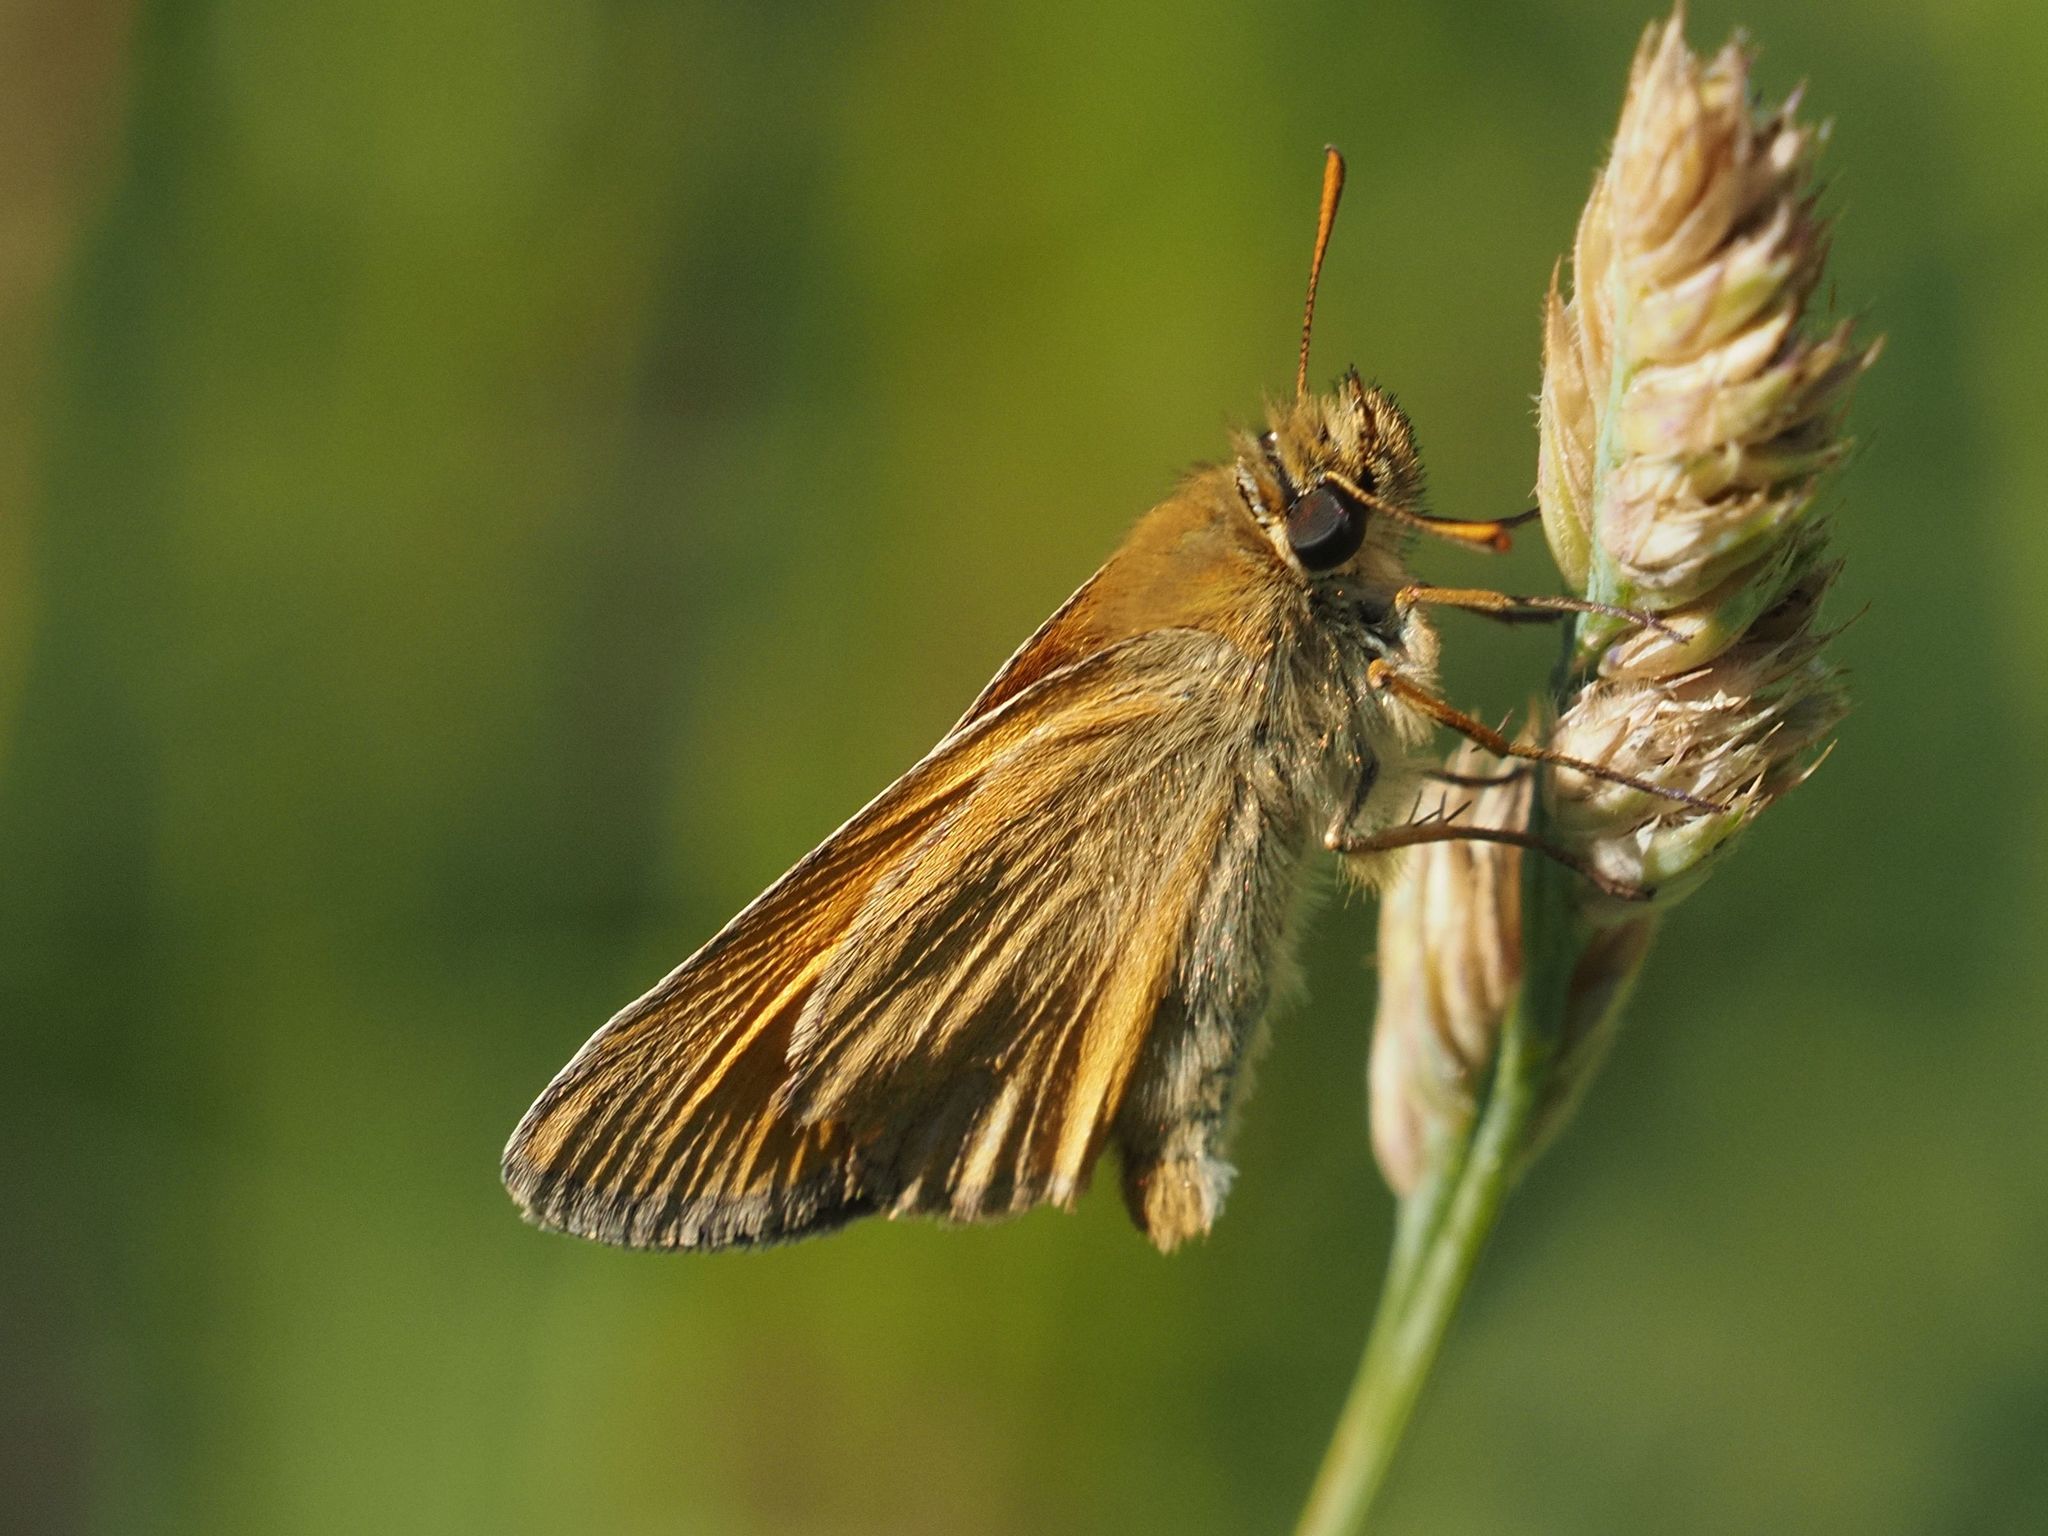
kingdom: Animalia
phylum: Arthropoda
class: Insecta
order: Lepidoptera
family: Hesperiidae
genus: Thymelicus
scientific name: Thymelicus sylvestris
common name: Small skipper
